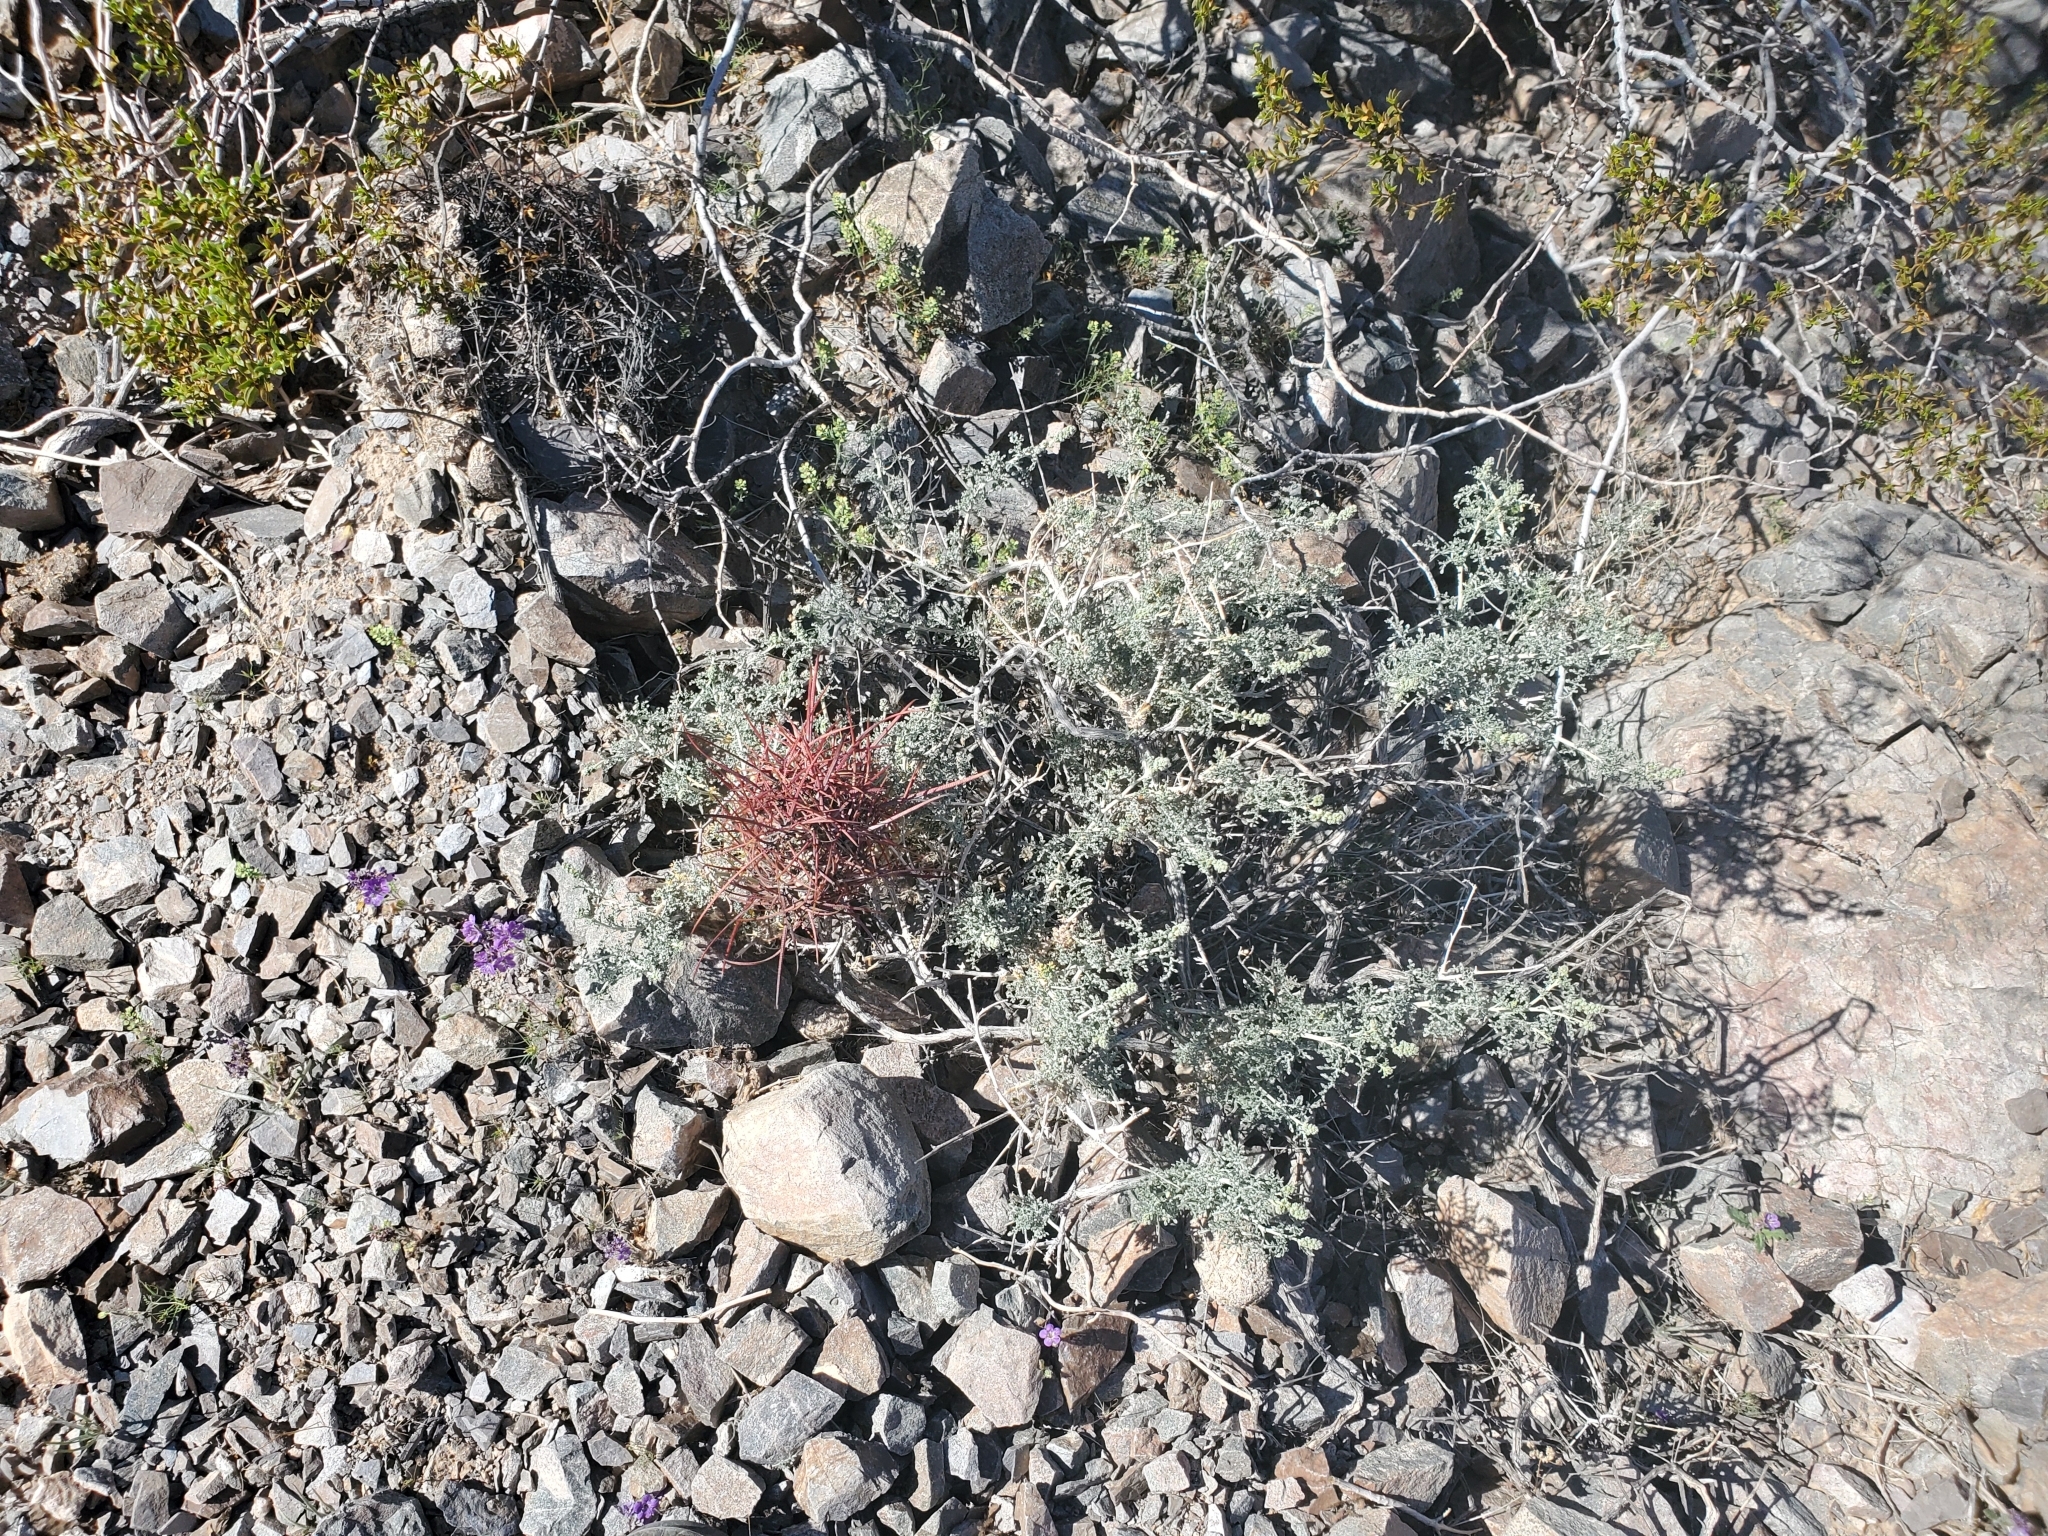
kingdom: Plantae
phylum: Tracheophyta
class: Magnoliopsida
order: Asterales
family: Asteraceae
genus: Ambrosia
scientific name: Ambrosia dumosa
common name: Bur-sage
